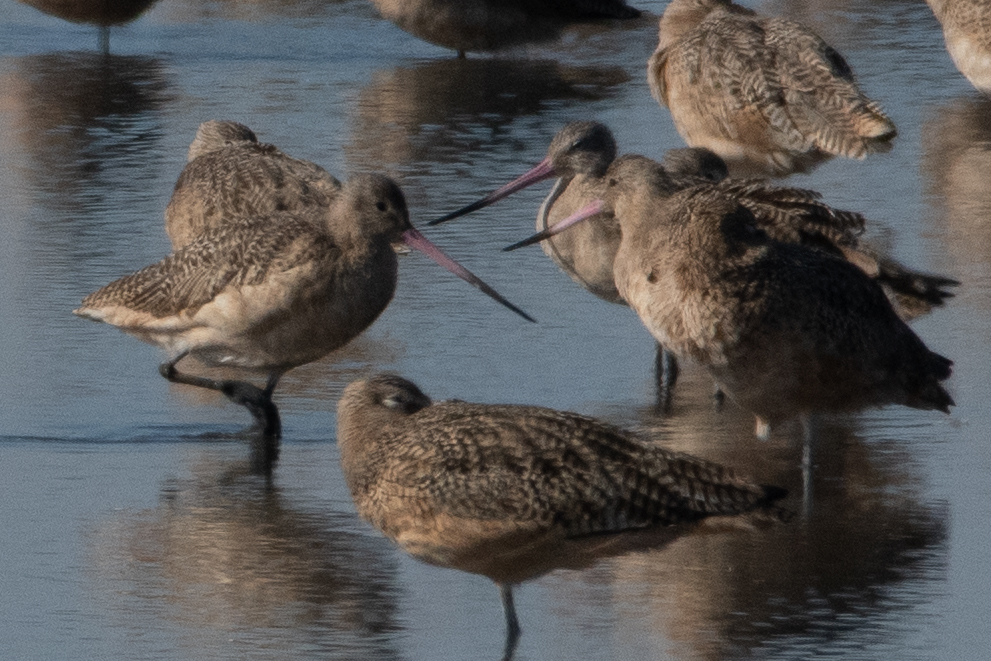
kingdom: Animalia
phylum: Chordata
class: Aves
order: Charadriiformes
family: Scolopacidae
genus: Limosa
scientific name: Limosa fedoa
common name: Marbled godwit
